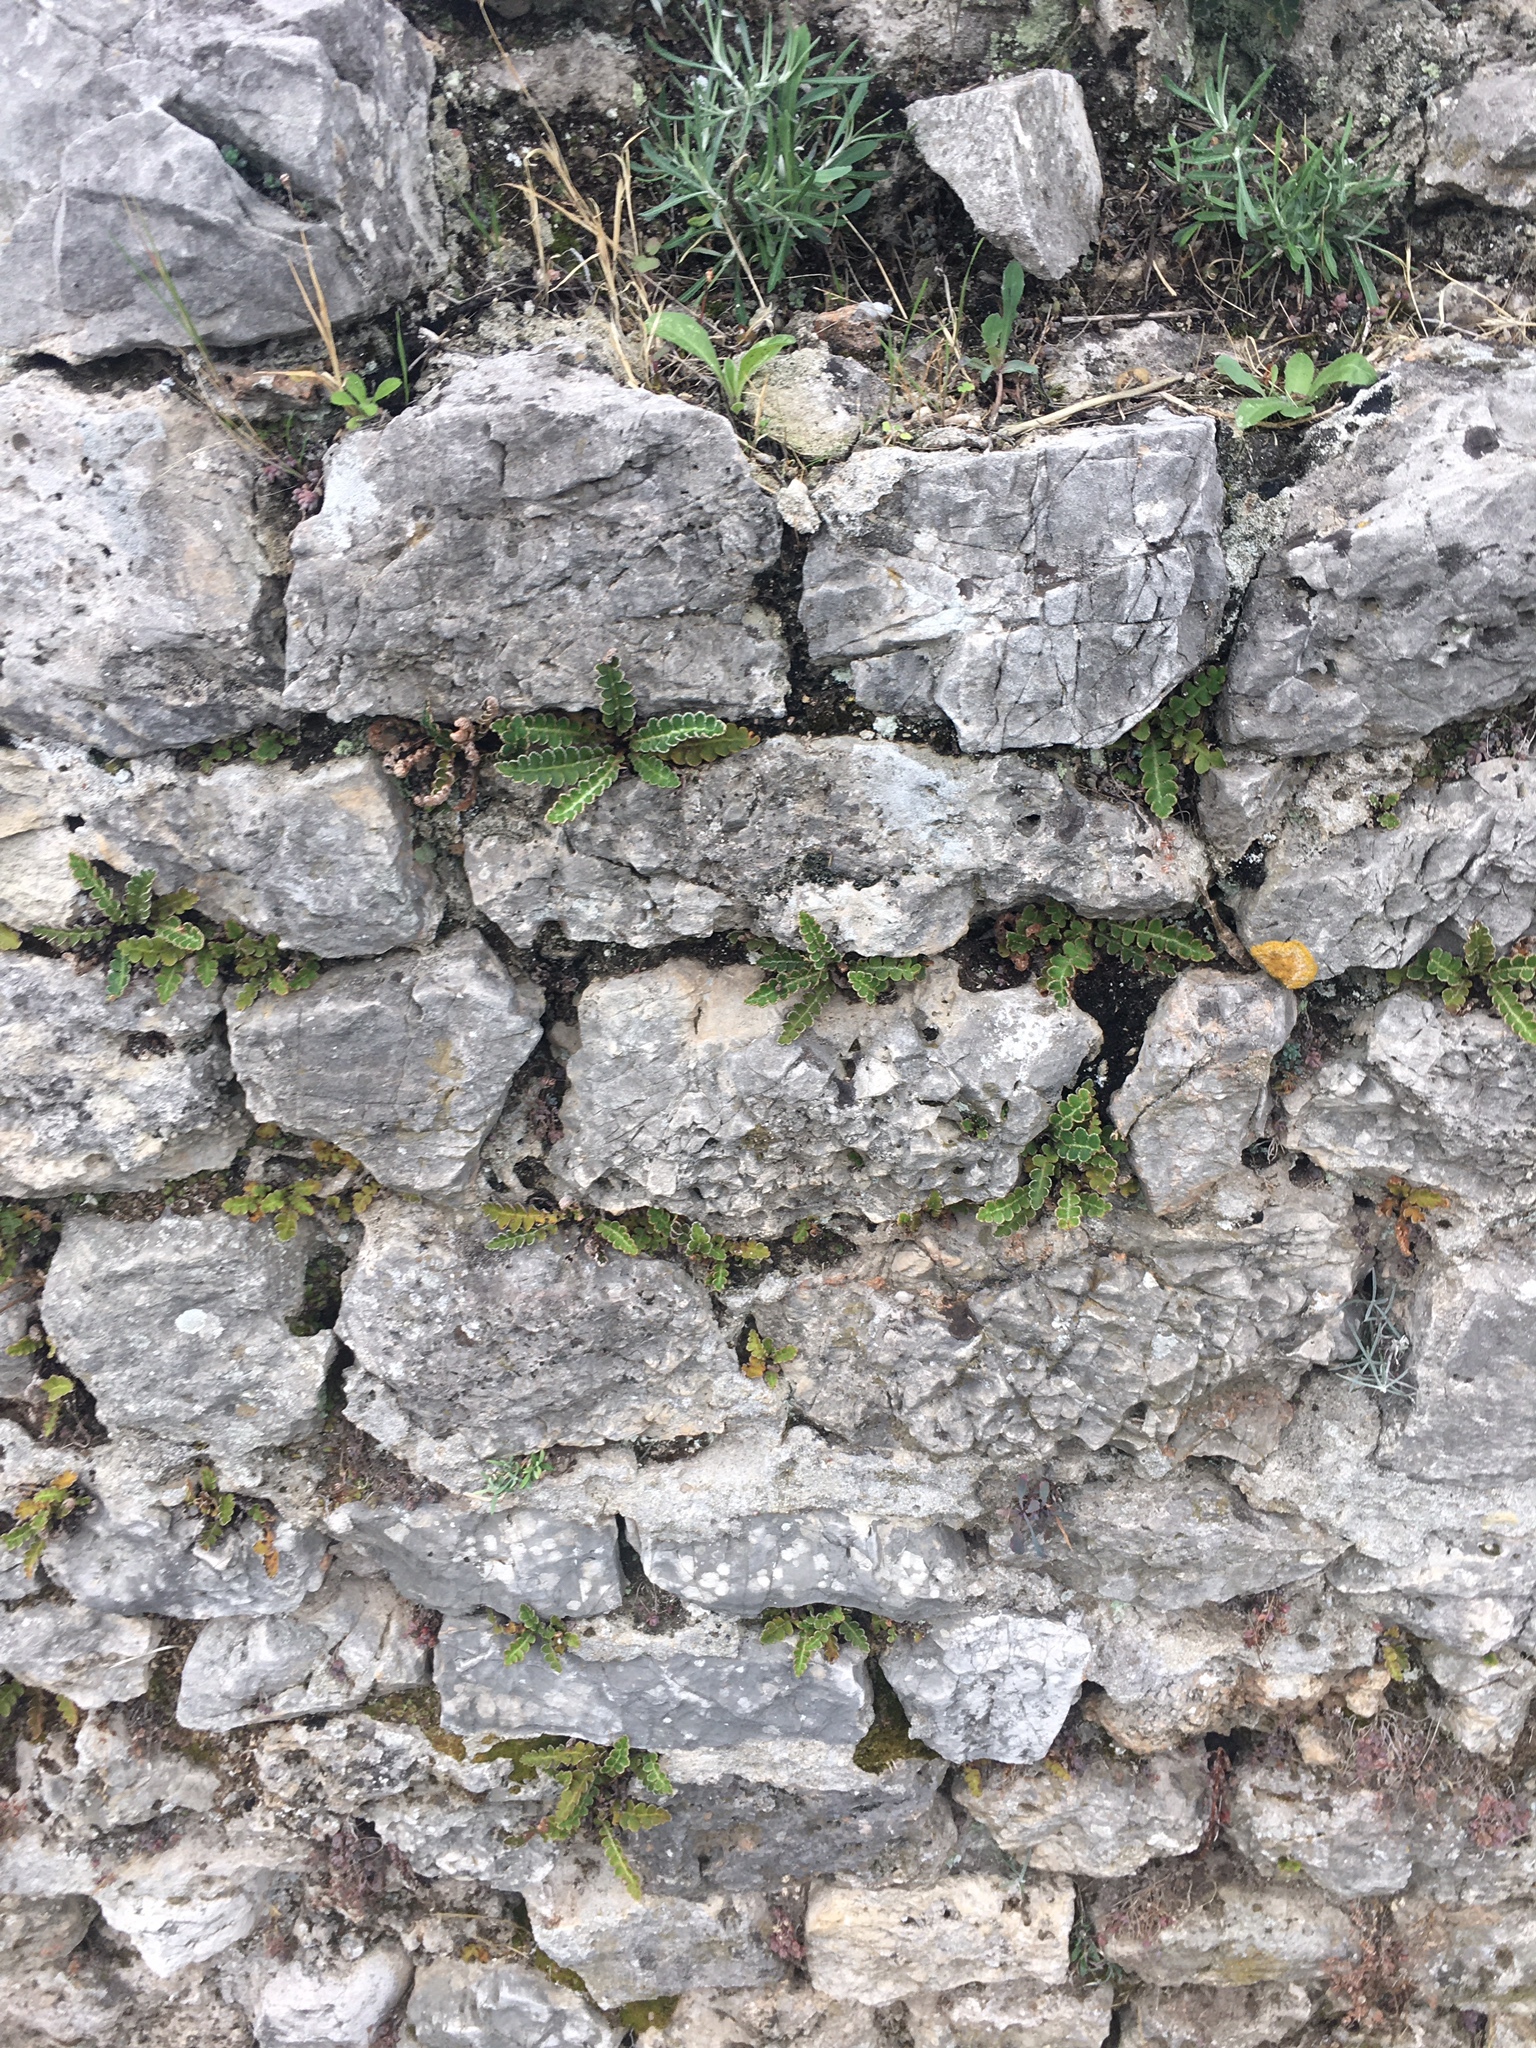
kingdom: Plantae
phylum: Tracheophyta
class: Polypodiopsida
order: Polypodiales
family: Aspleniaceae
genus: Asplenium
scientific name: Asplenium ceterach
